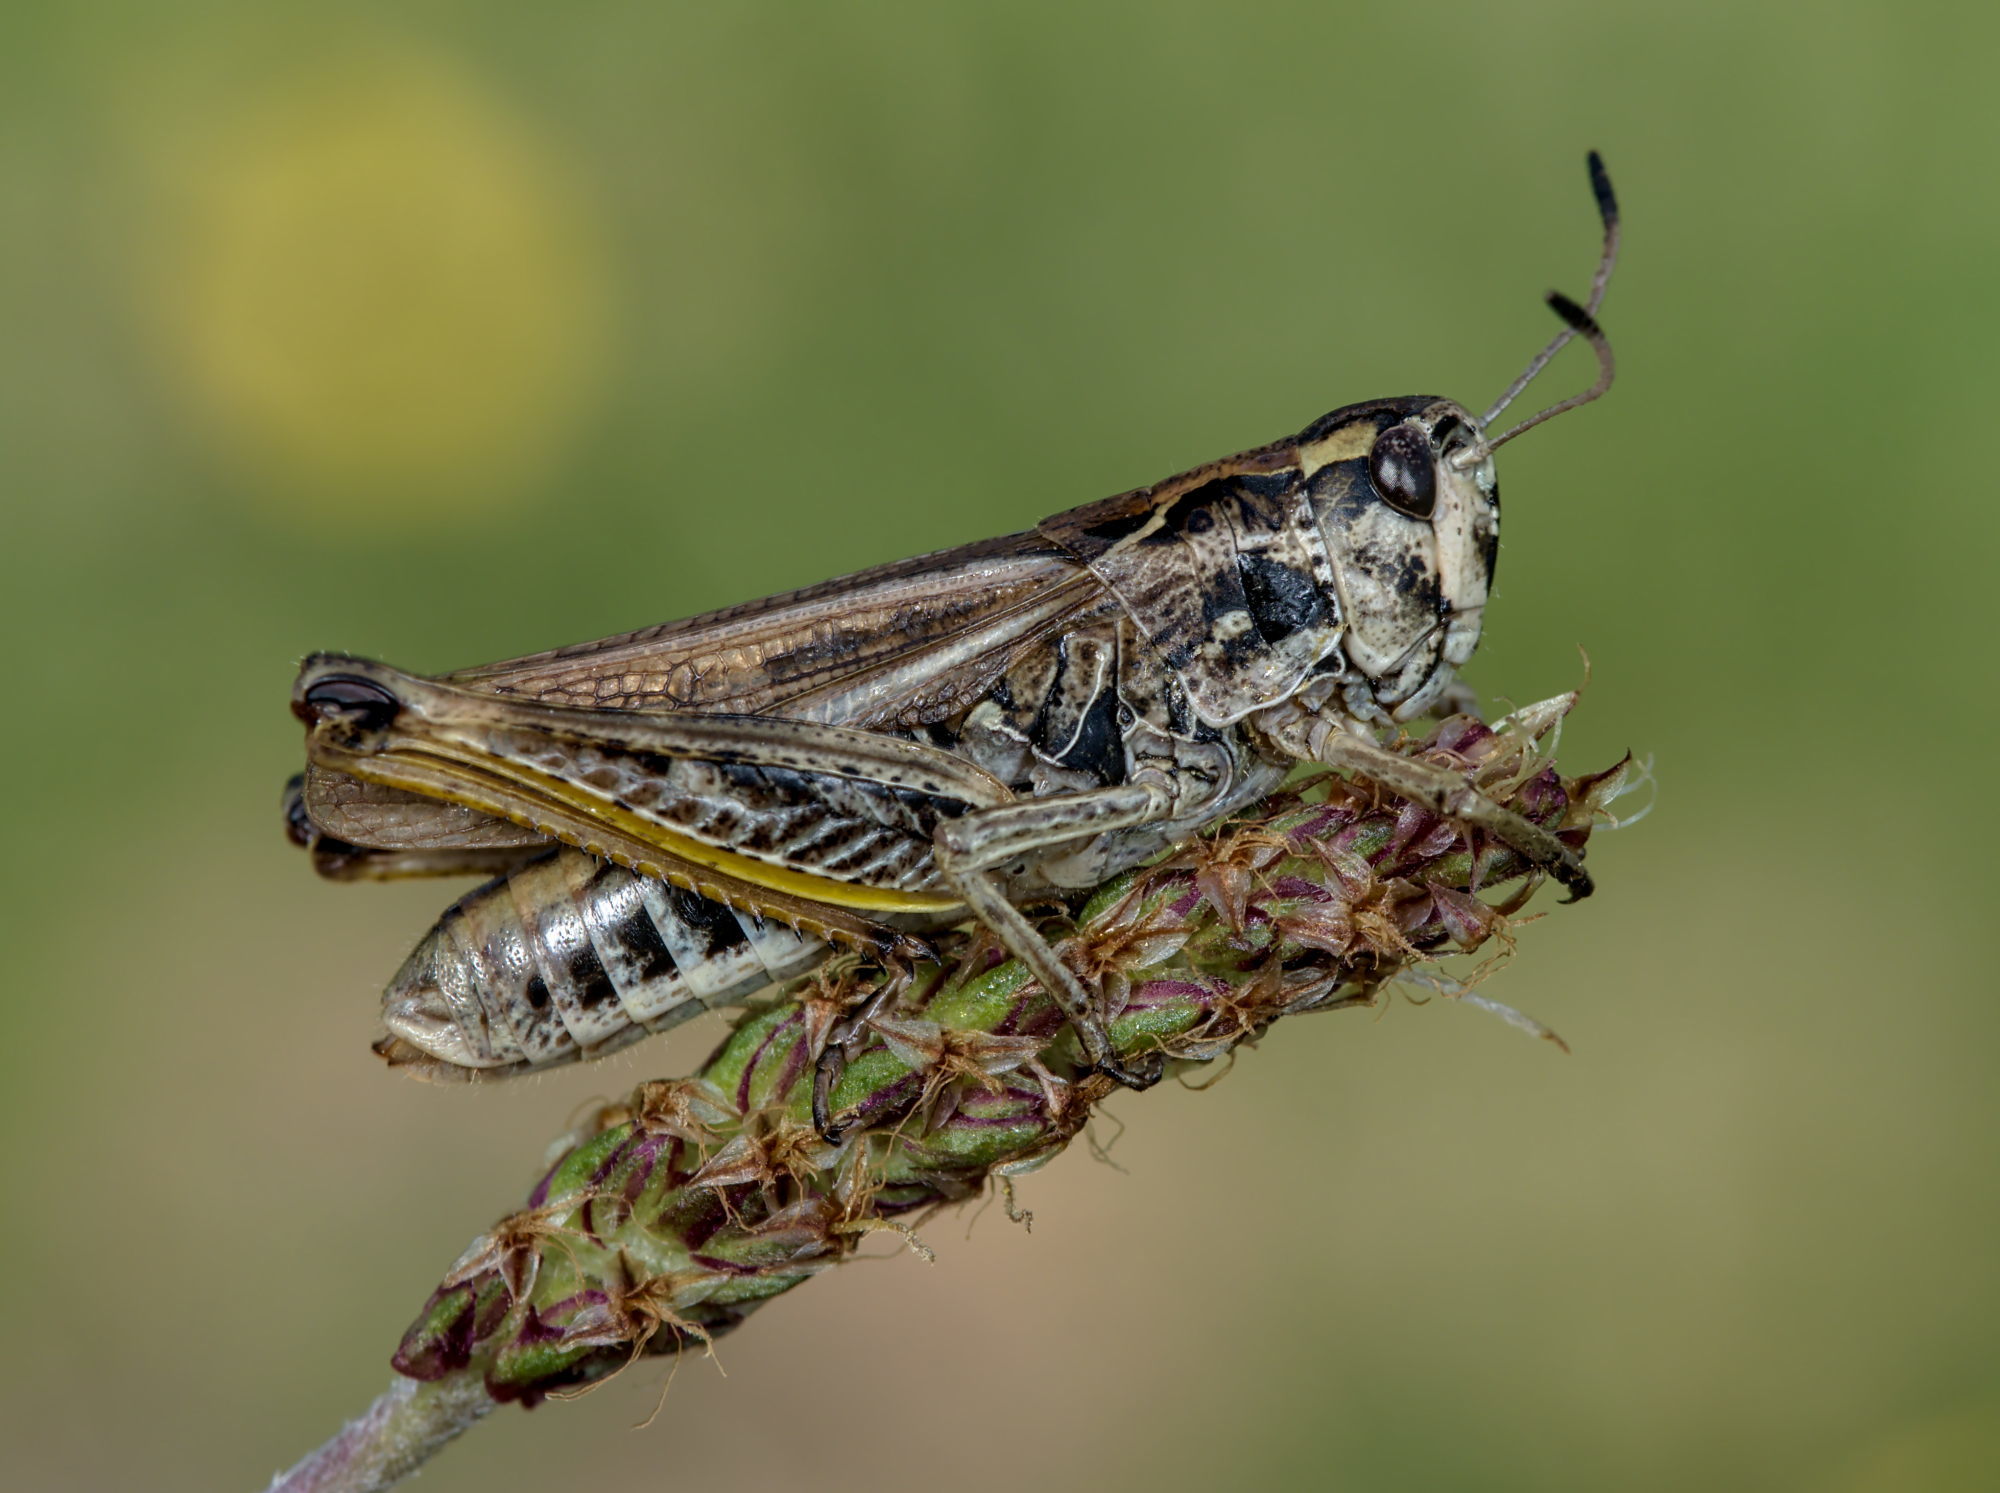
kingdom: Animalia
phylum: Arthropoda
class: Insecta
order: Orthoptera
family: Acrididae
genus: Gomphocerus
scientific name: Gomphocerus sibiricus
